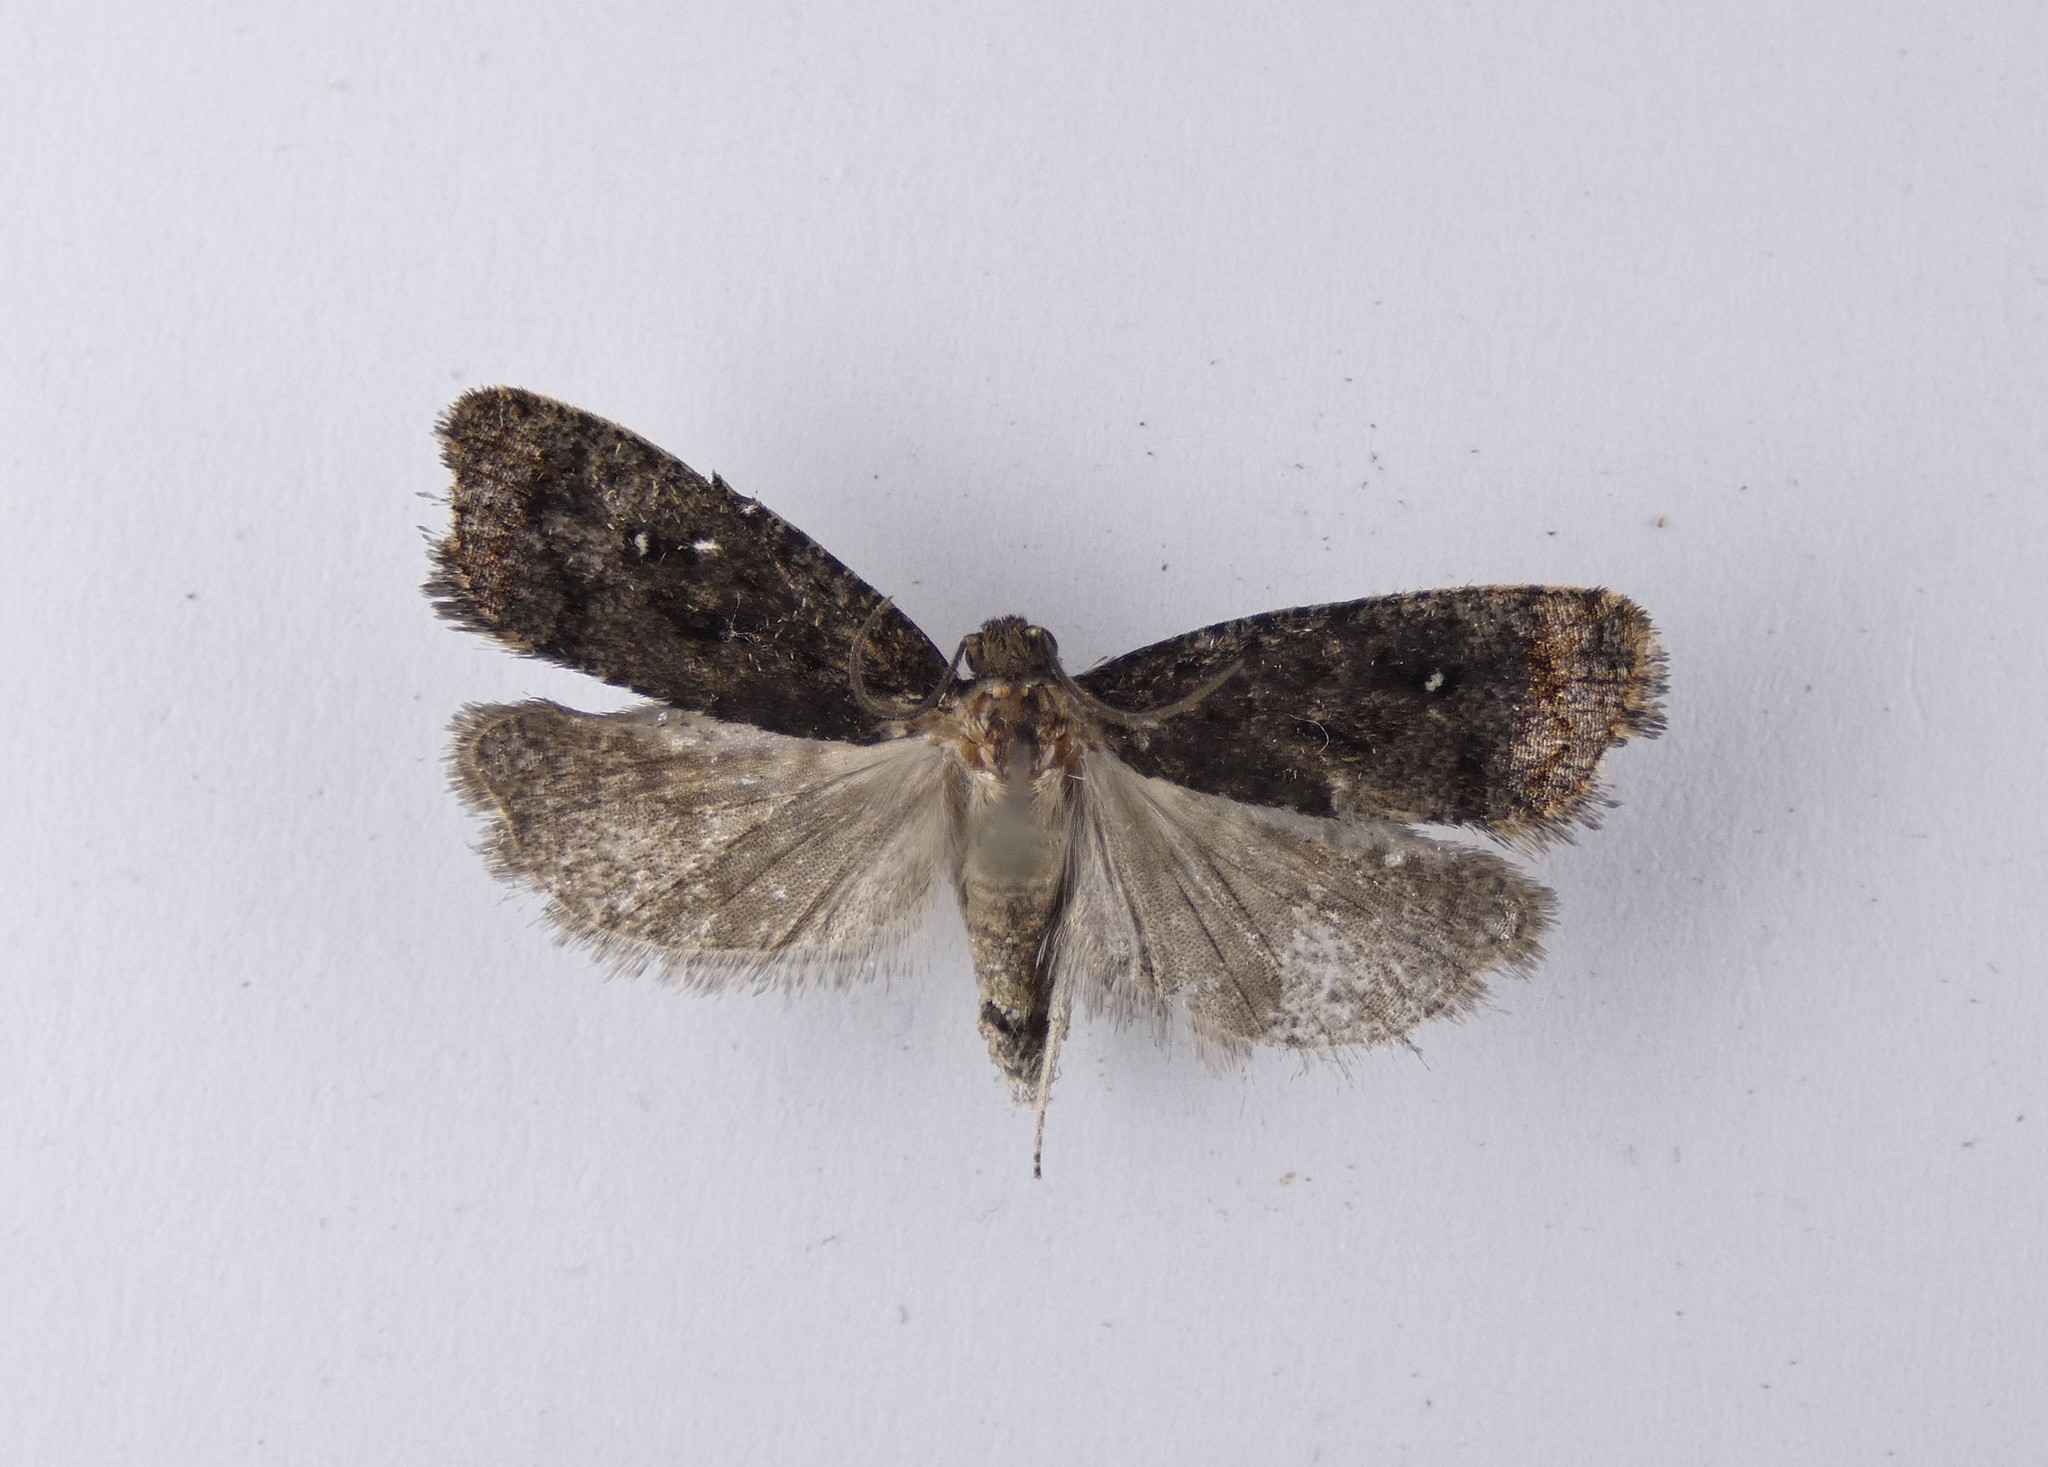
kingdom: Animalia
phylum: Arthropoda
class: Insecta
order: Lepidoptera
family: Tortricidae
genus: Cryptaspasma
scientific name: Cryptaspasma querula
